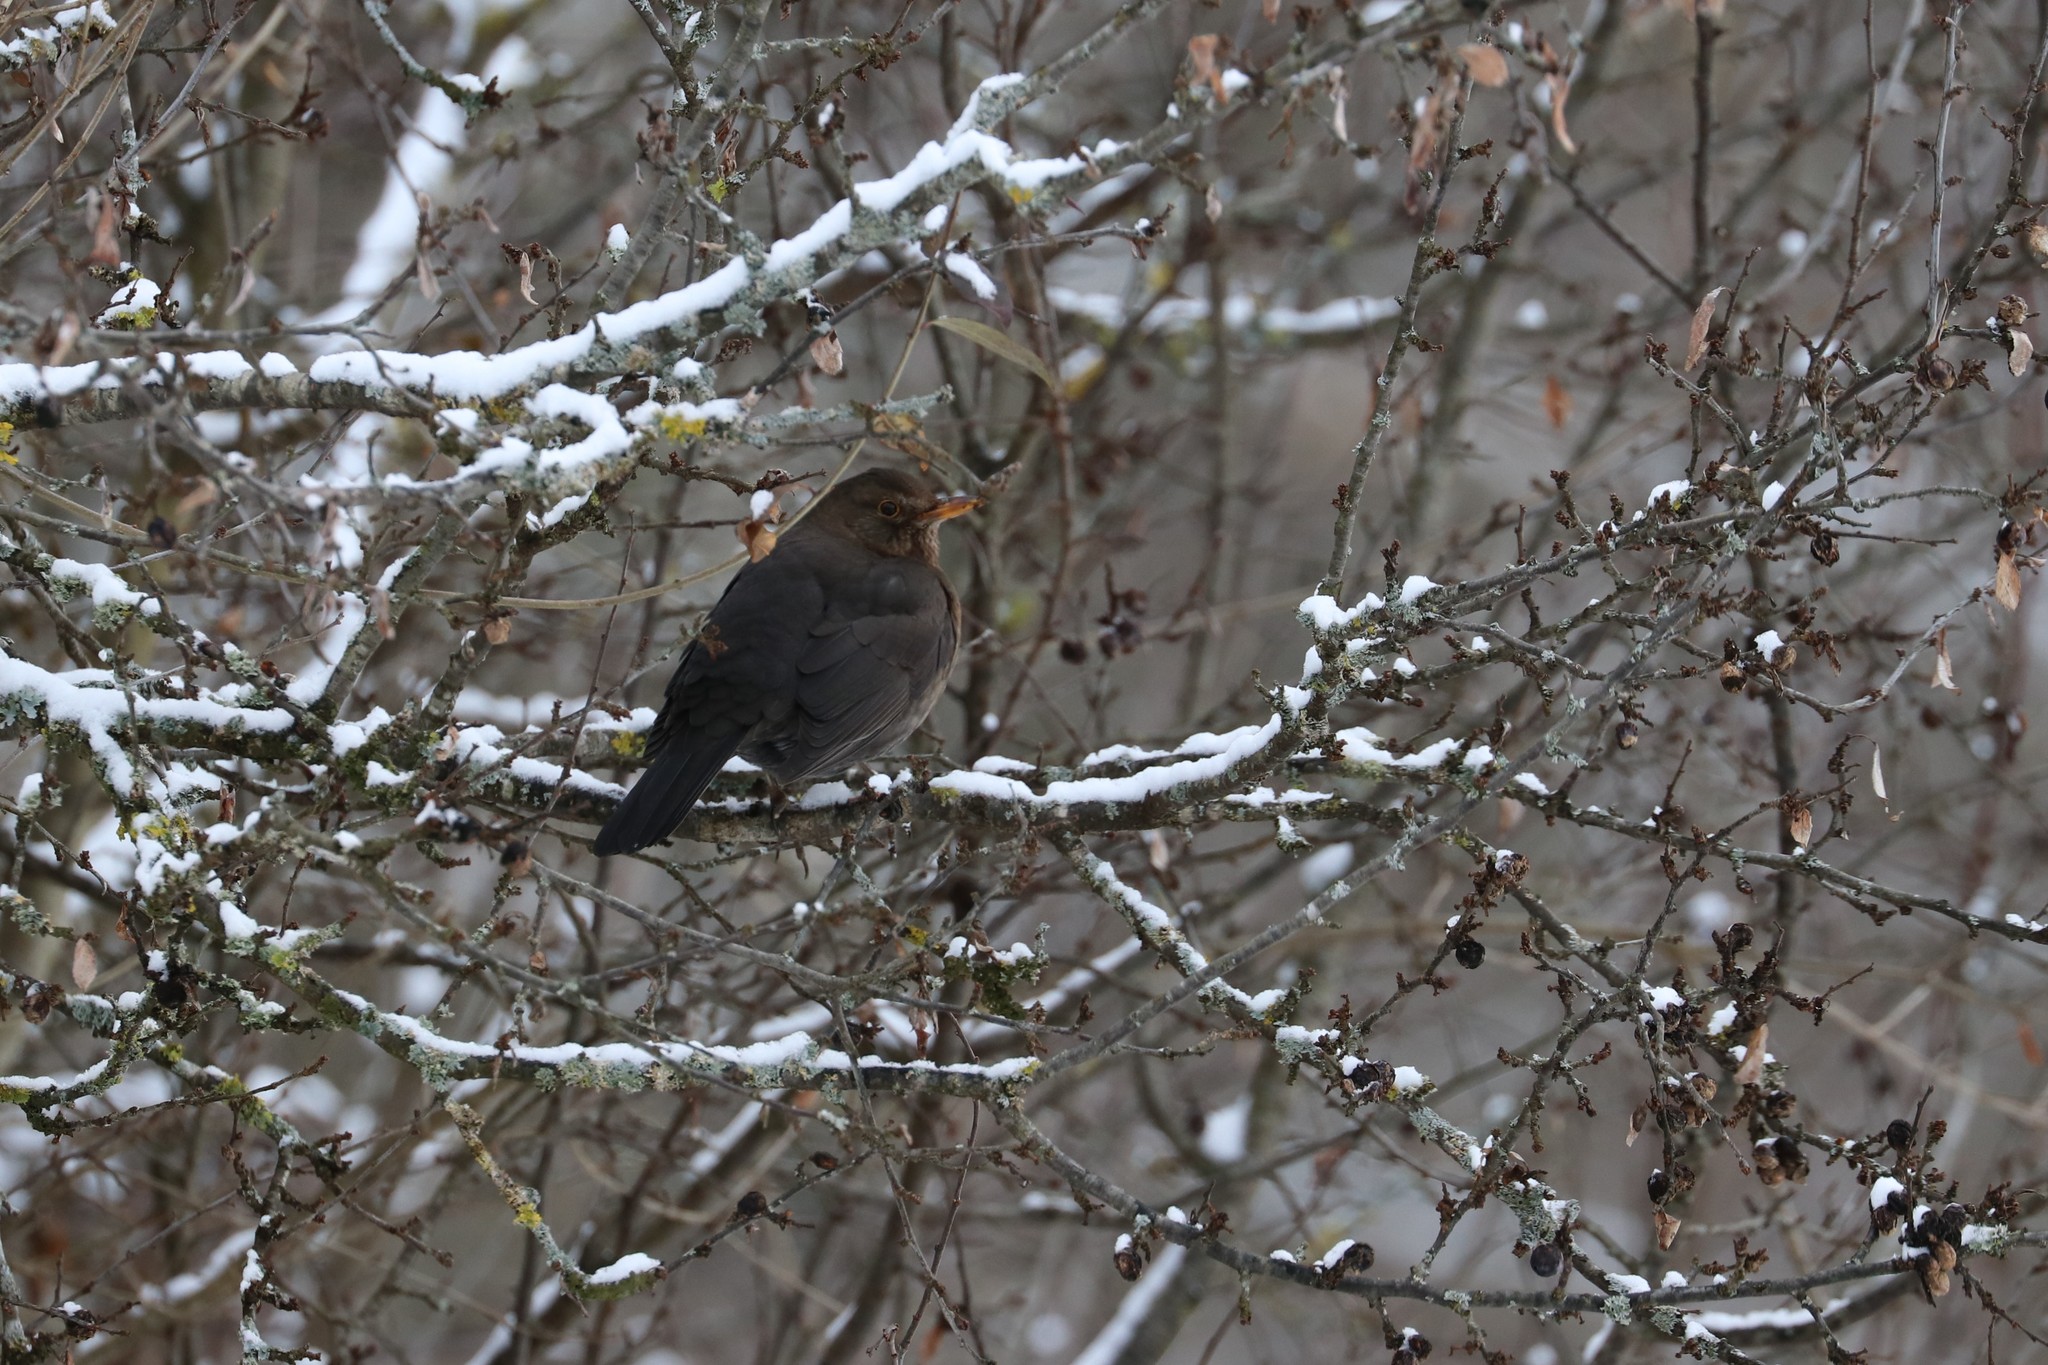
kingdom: Animalia
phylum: Chordata
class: Aves
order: Passeriformes
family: Turdidae
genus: Turdus
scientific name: Turdus merula
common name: Common blackbird
